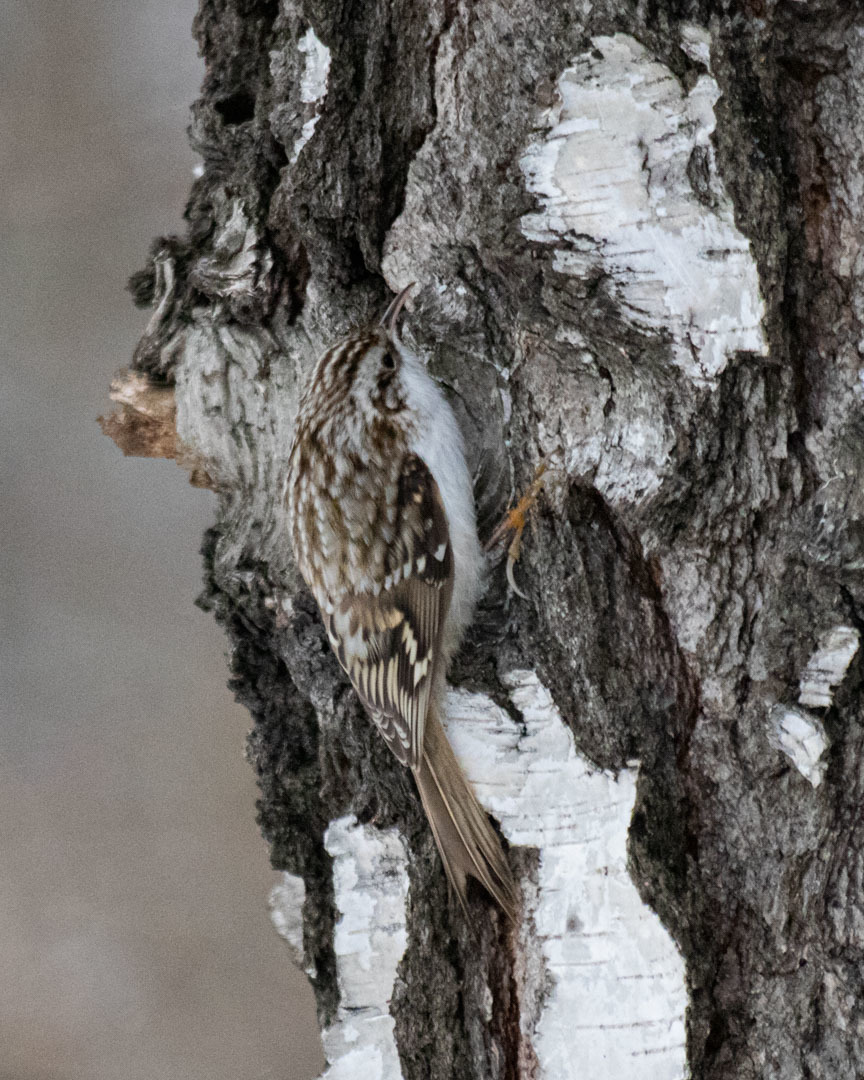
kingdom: Animalia
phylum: Chordata
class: Aves
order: Passeriformes
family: Certhiidae
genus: Certhia
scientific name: Certhia familiaris
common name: Eurasian treecreeper
